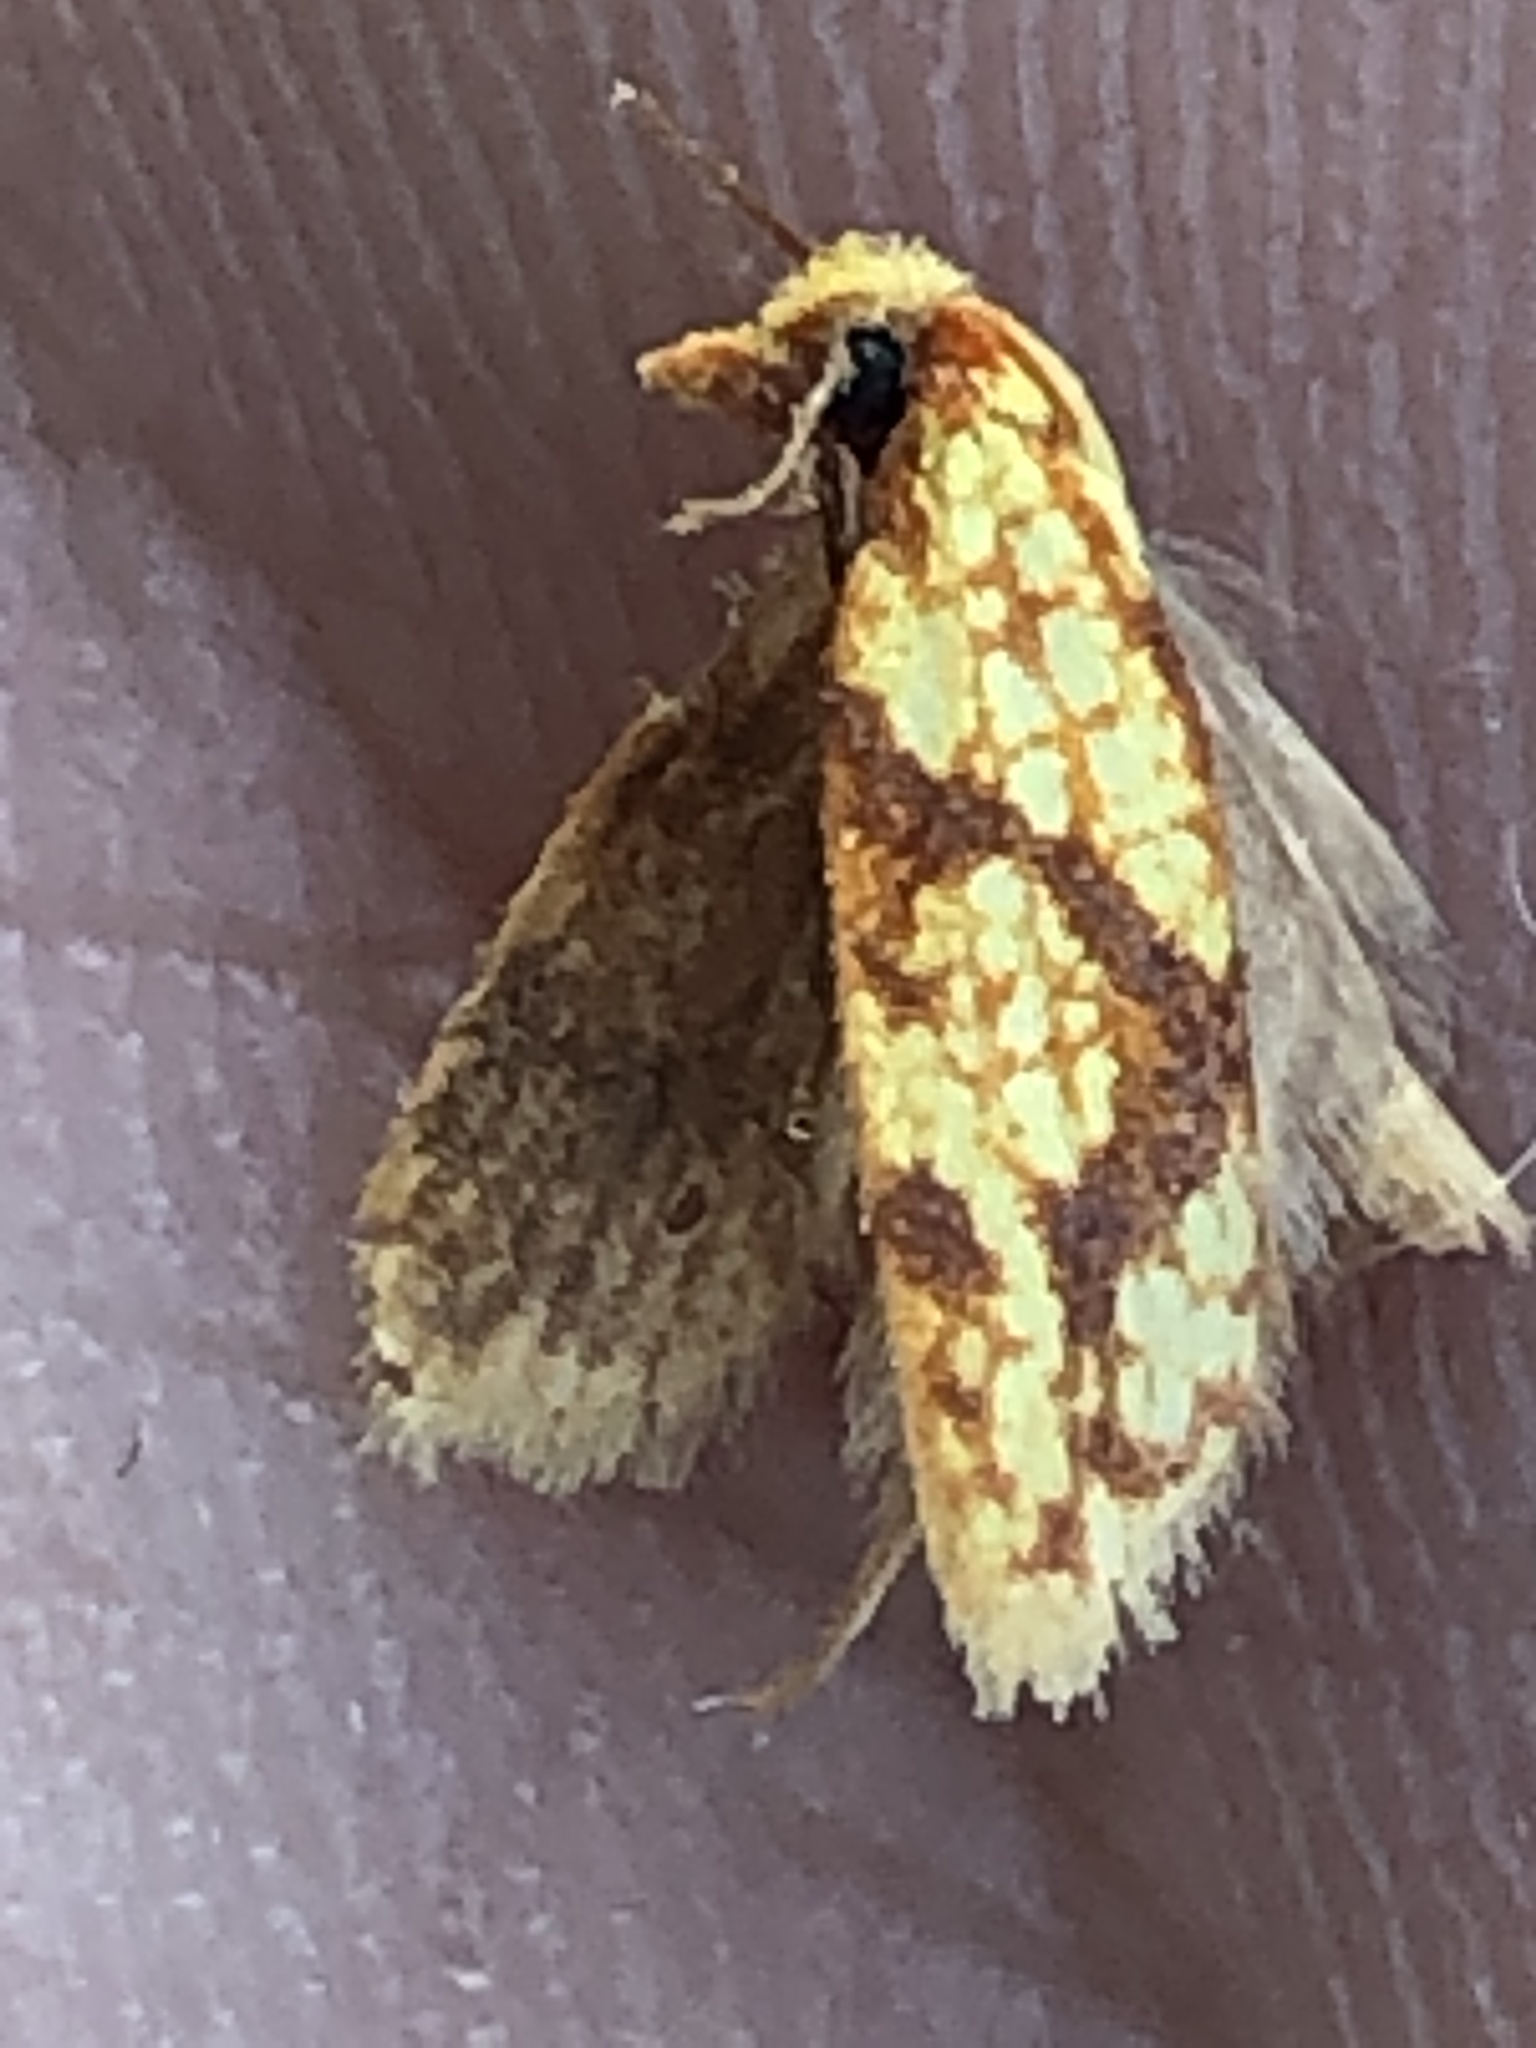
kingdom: Animalia
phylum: Arthropoda
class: Insecta
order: Lepidoptera
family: Tortricidae
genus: Sparganothis
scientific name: Sparganothis sulfureana
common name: Sparganothis fruitworm moth
